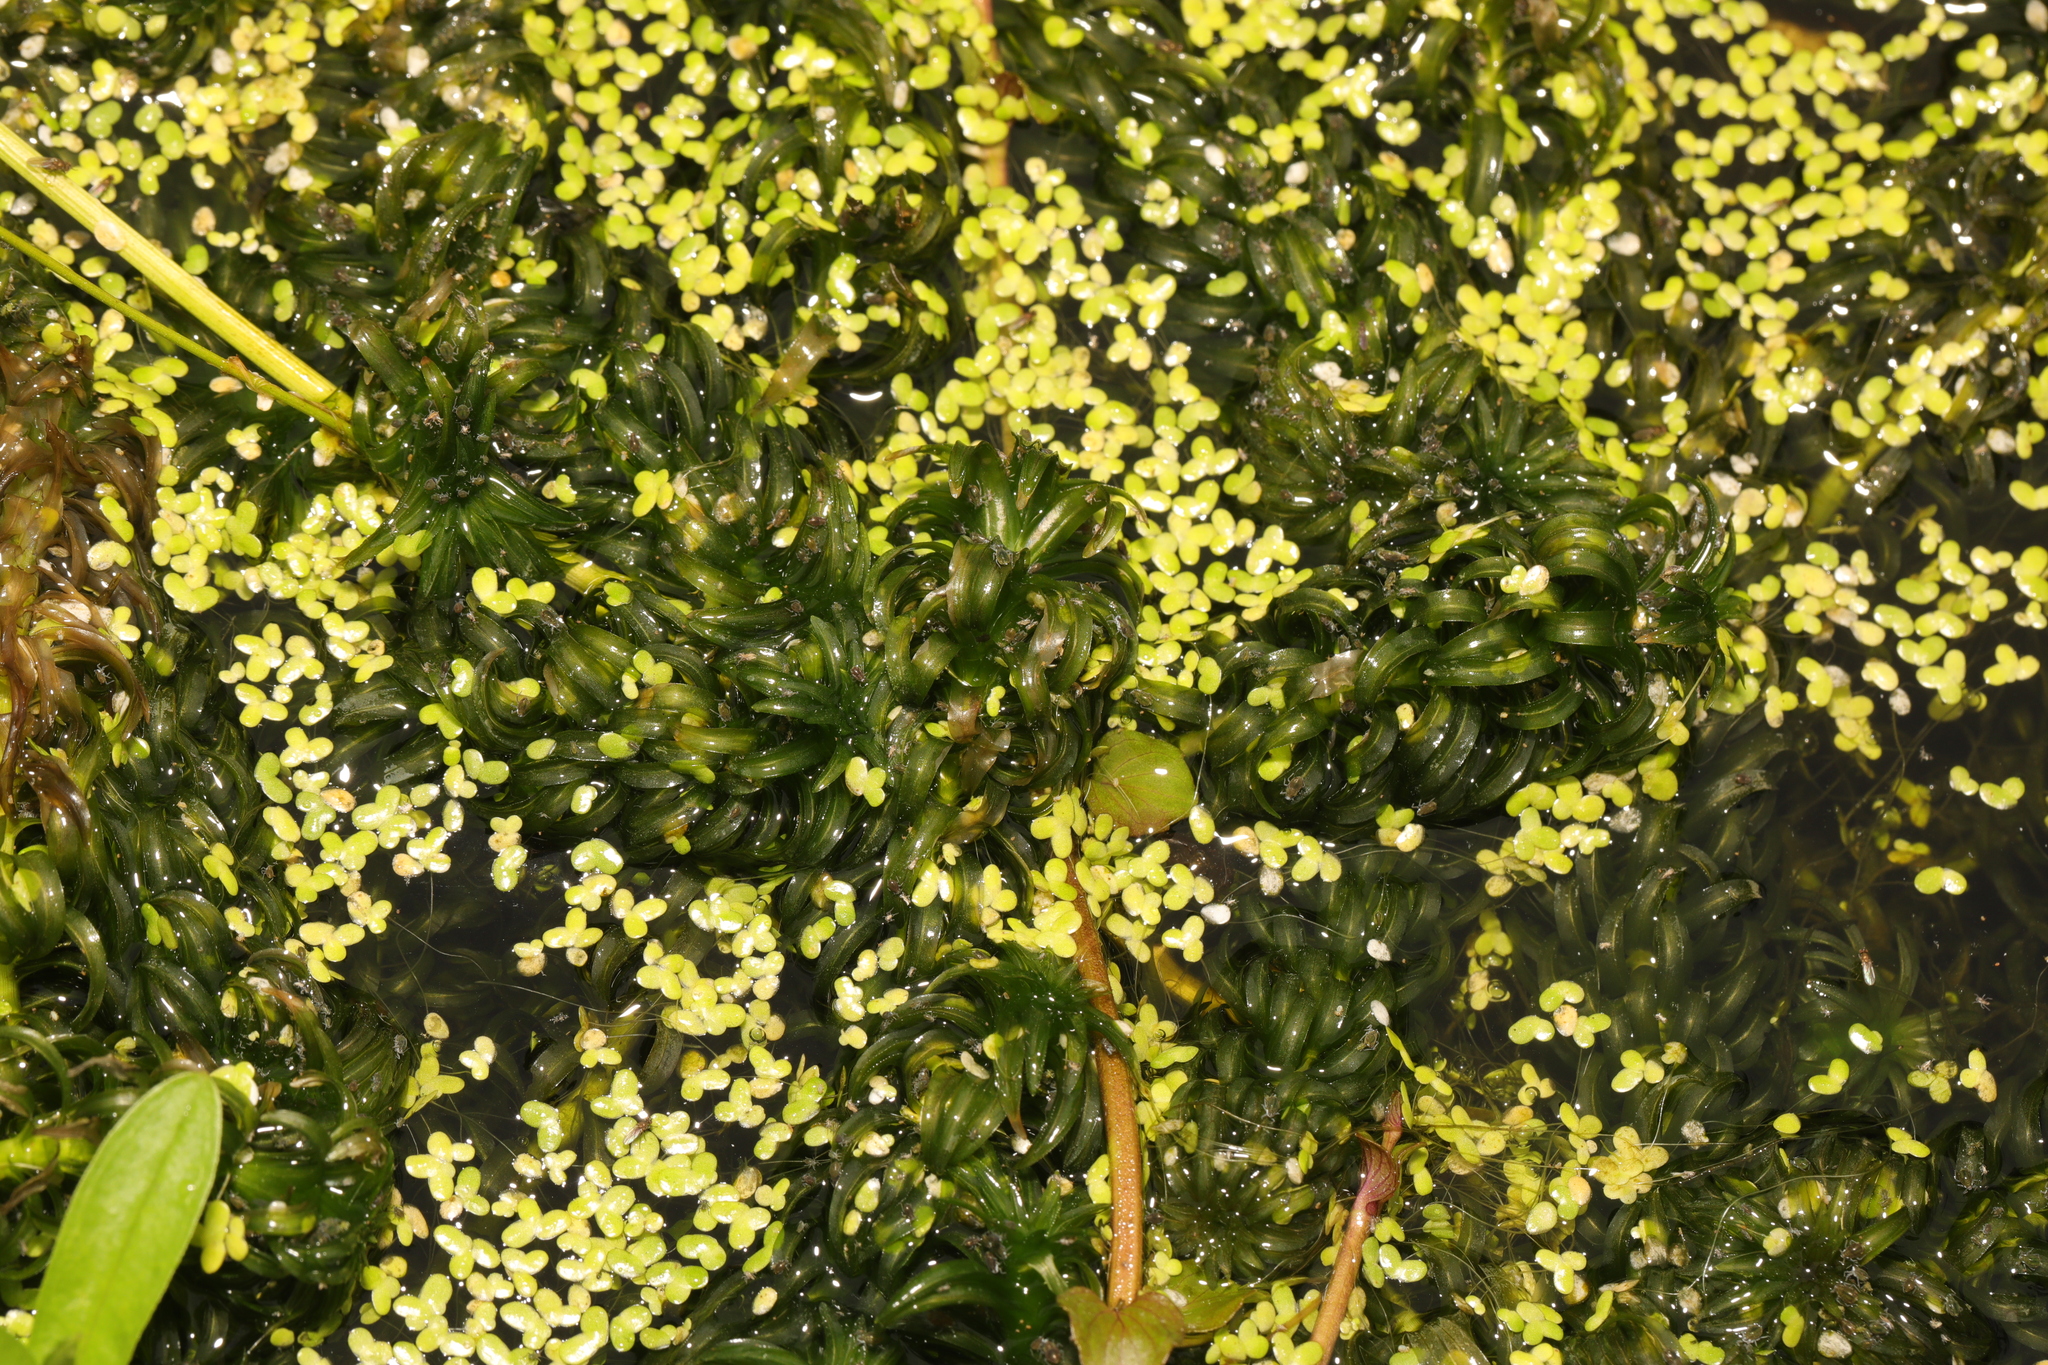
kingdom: Plantae
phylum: Tracheophyta
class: Liliopsida
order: Alismatales
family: Hydrocharitaceae
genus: Lagarosiphon
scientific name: Lagarosiphon major
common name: Curly waterweed
